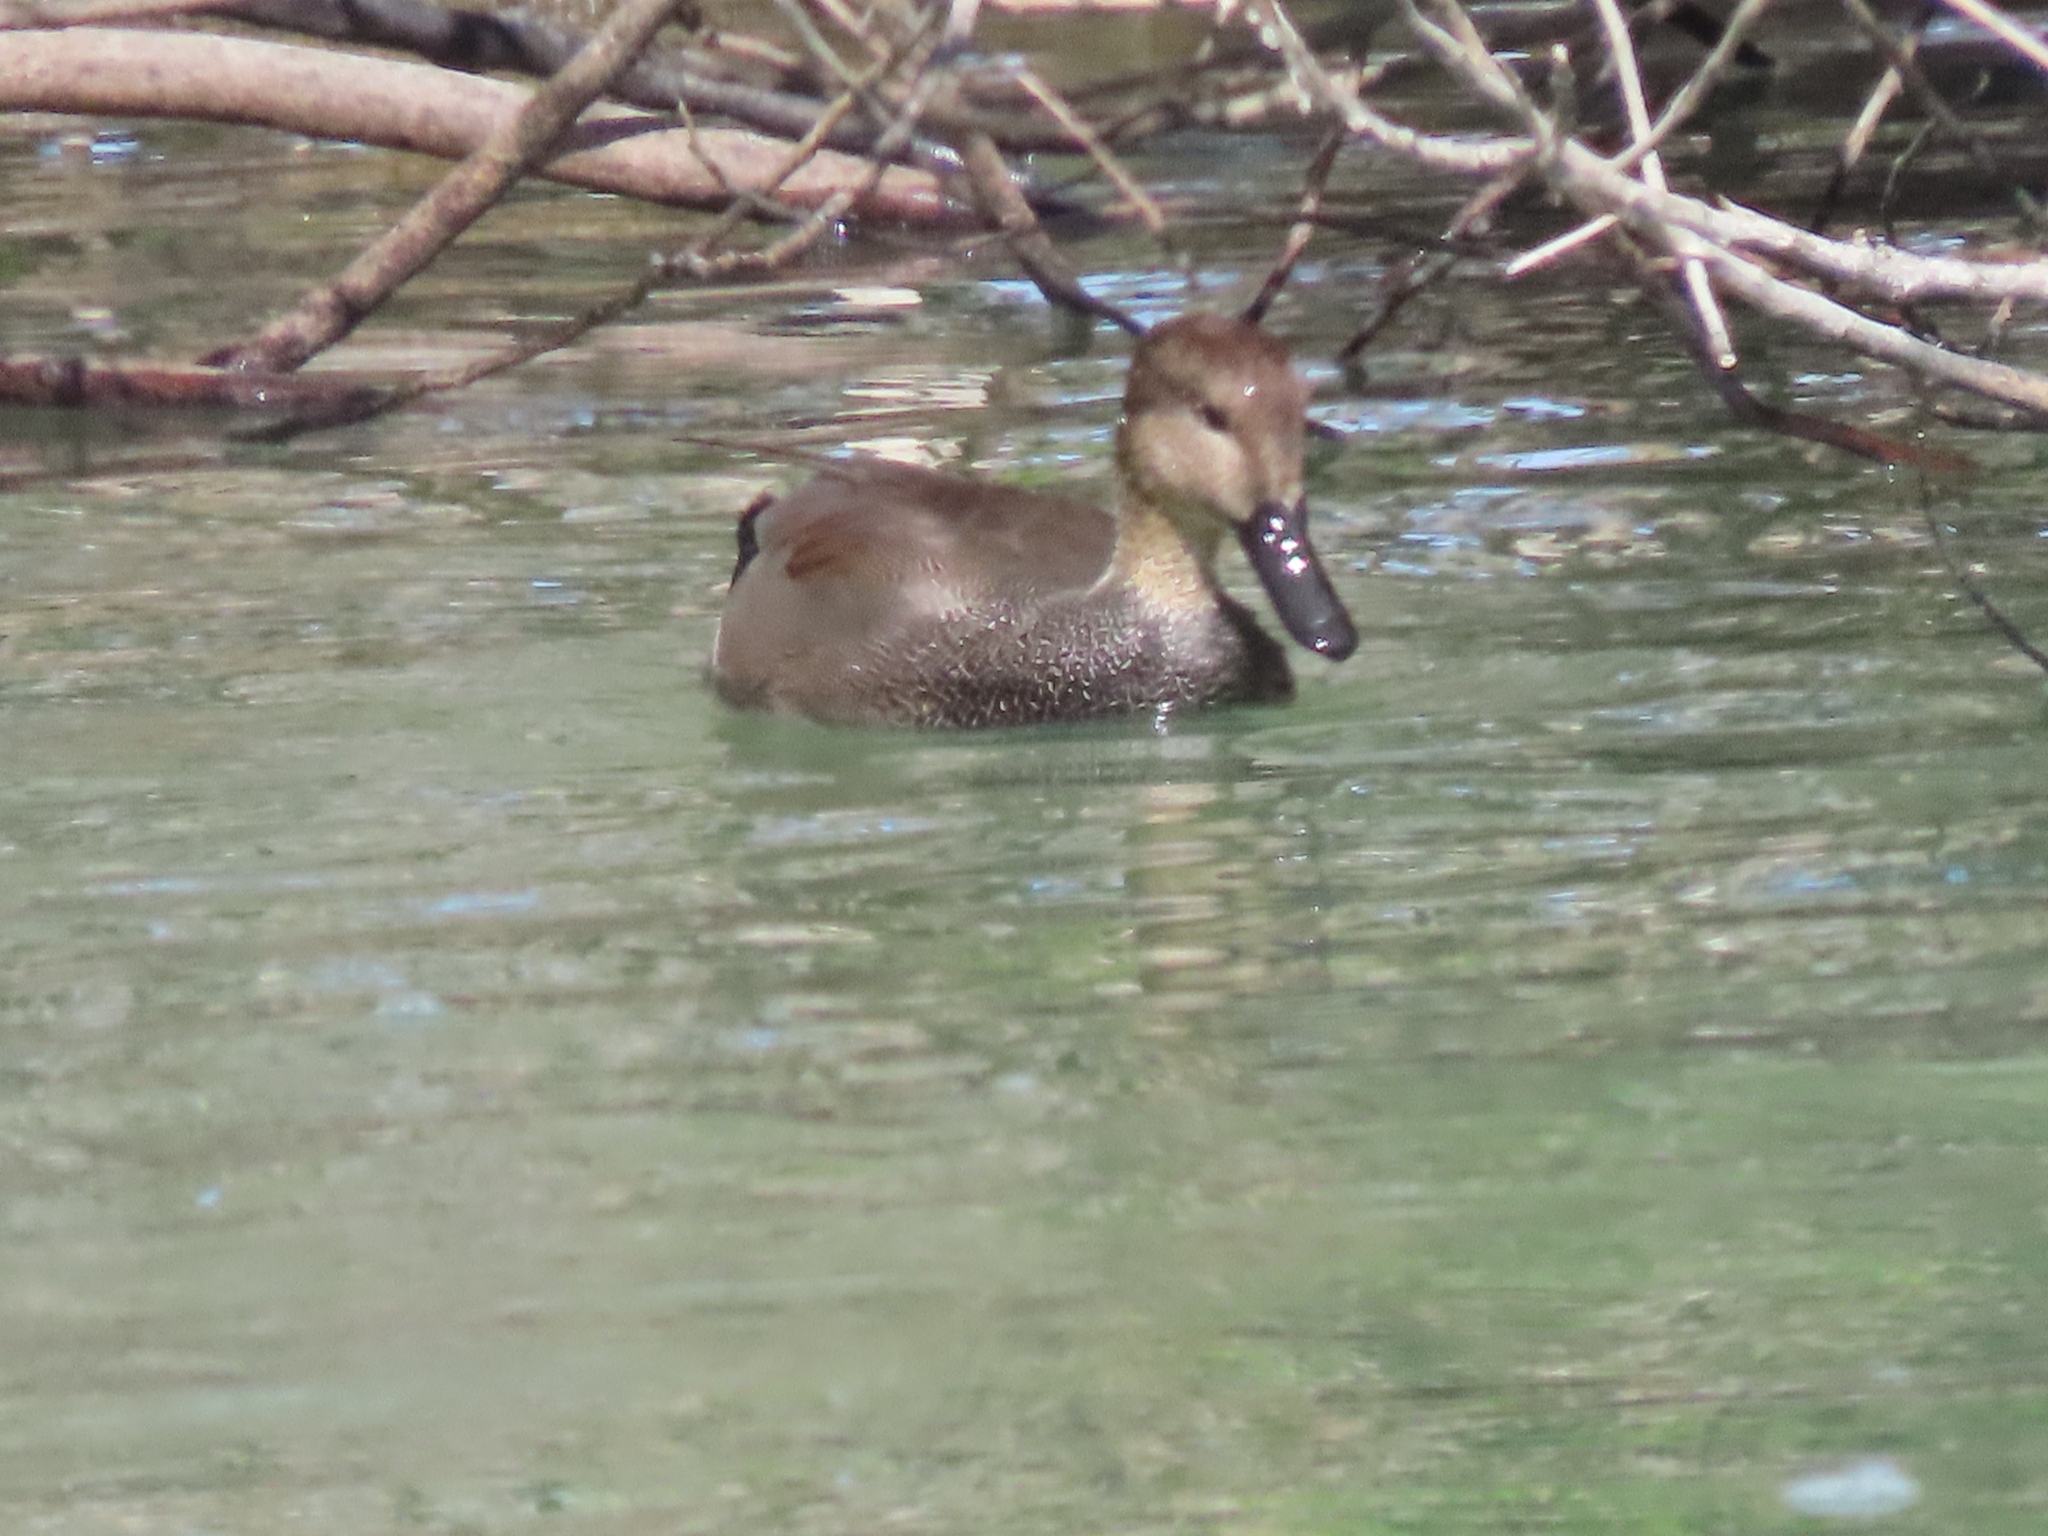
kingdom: Animalia
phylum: Chordata
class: Aves
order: Anseriformes
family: Anatidae
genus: Mareca
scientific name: Mareca strepera
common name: Gadwall
